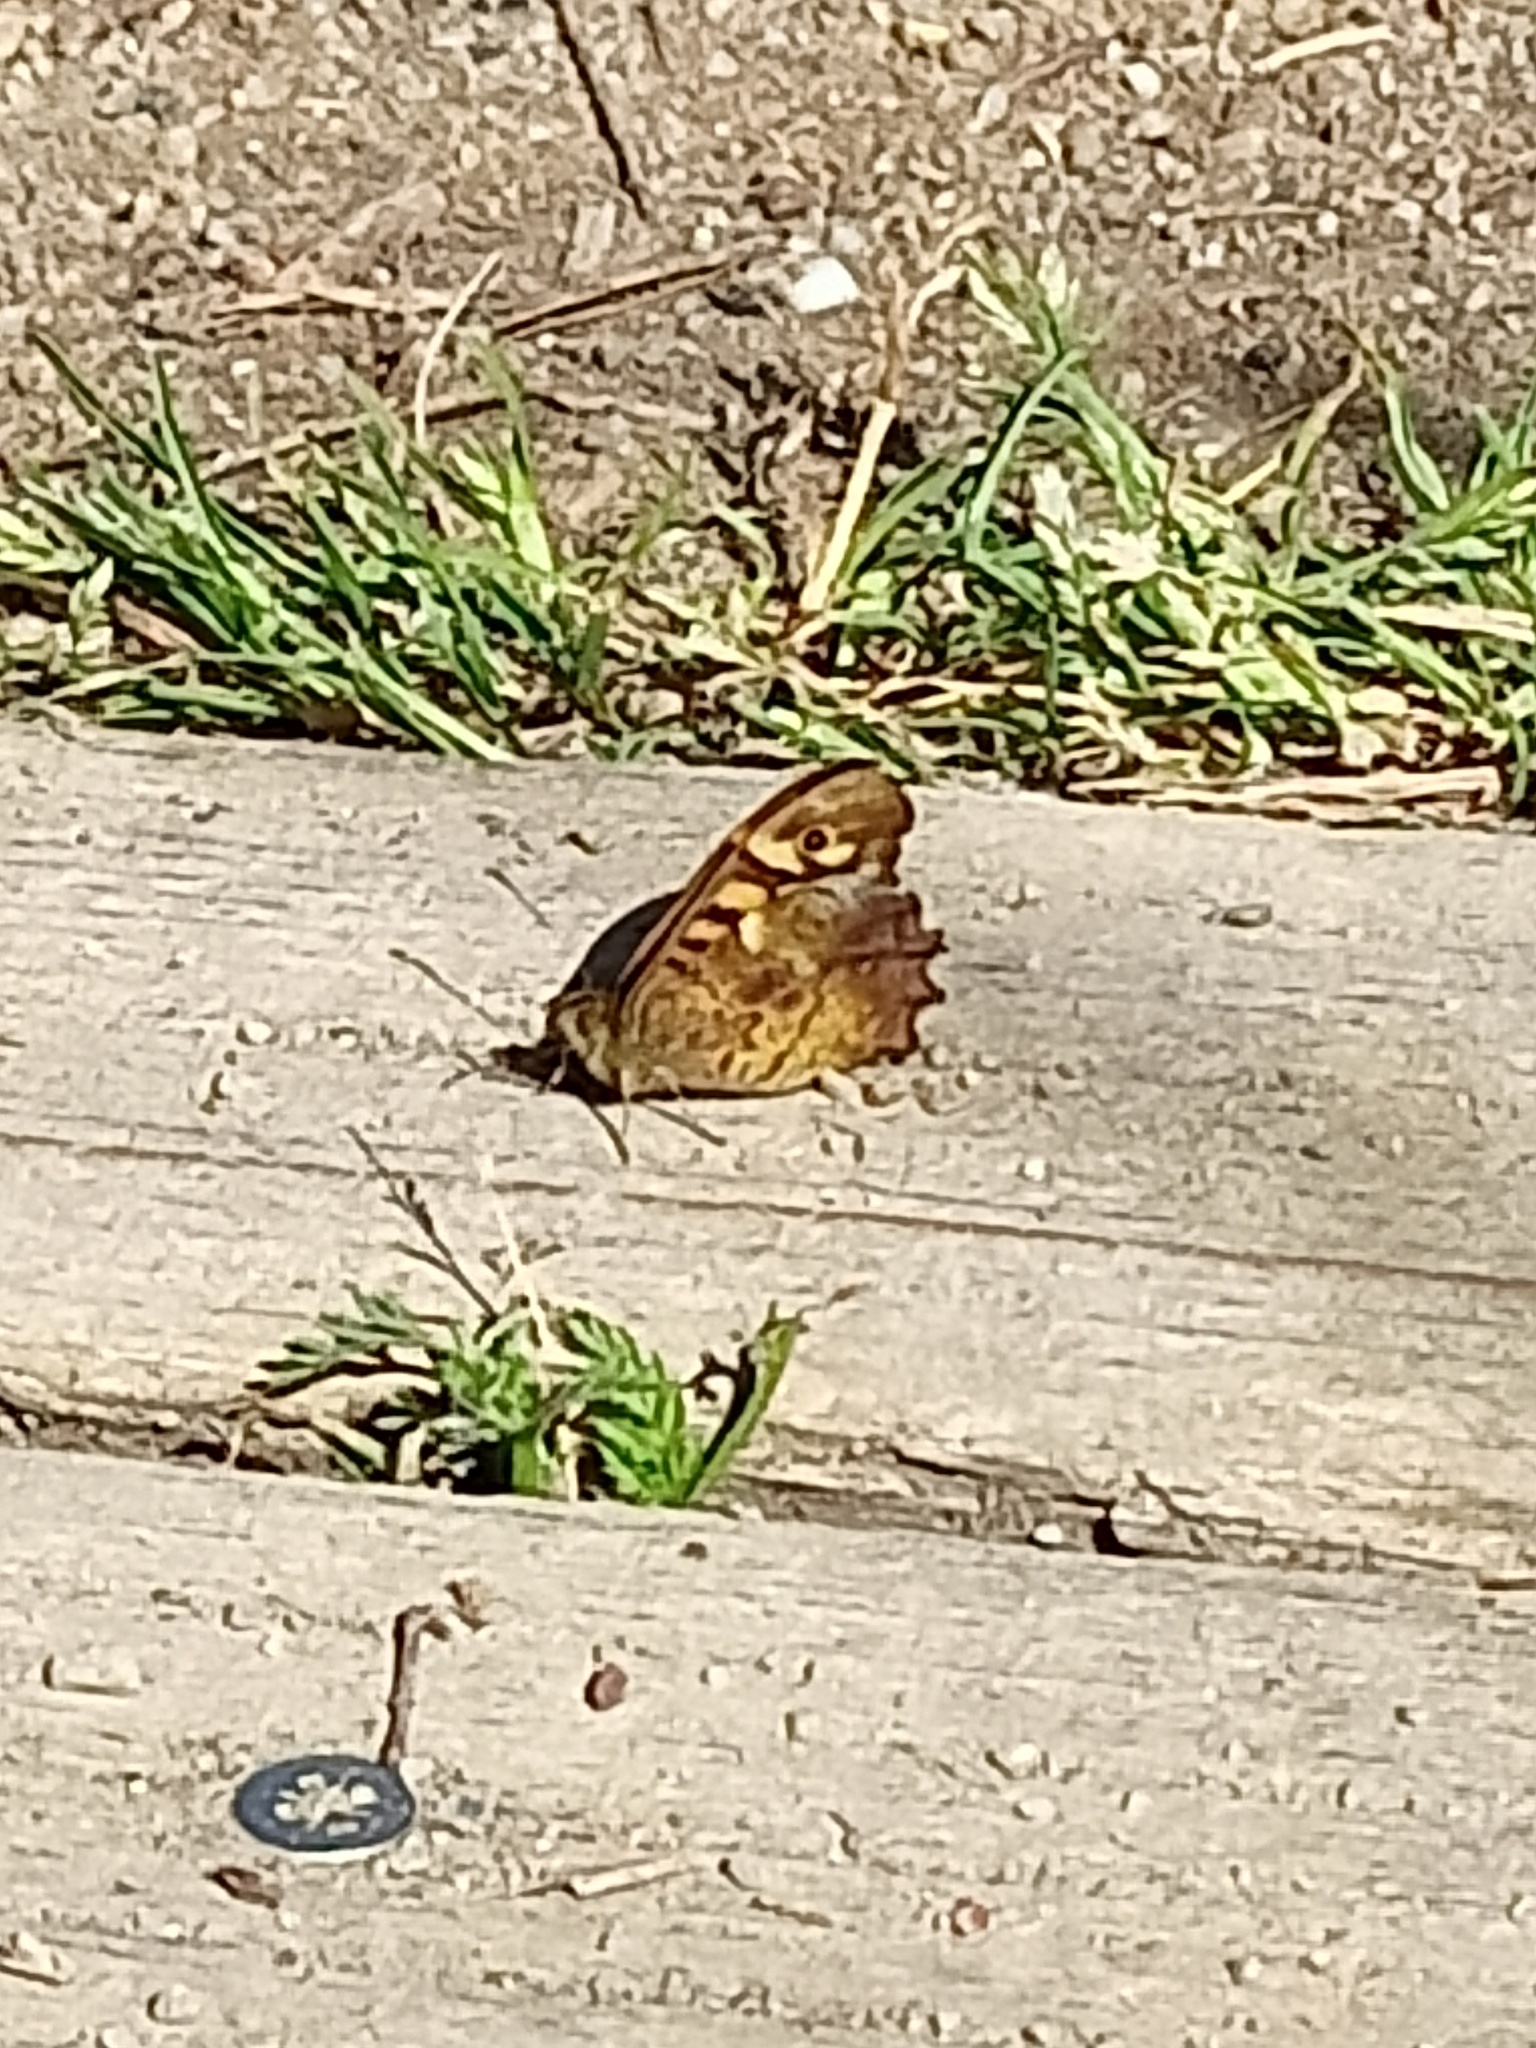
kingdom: Animalia
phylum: Arthropoda
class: Insecta
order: Lepidoptera
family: Nymphalidae
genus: Pararge
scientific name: Pararge aegeria
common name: Speckled wood
